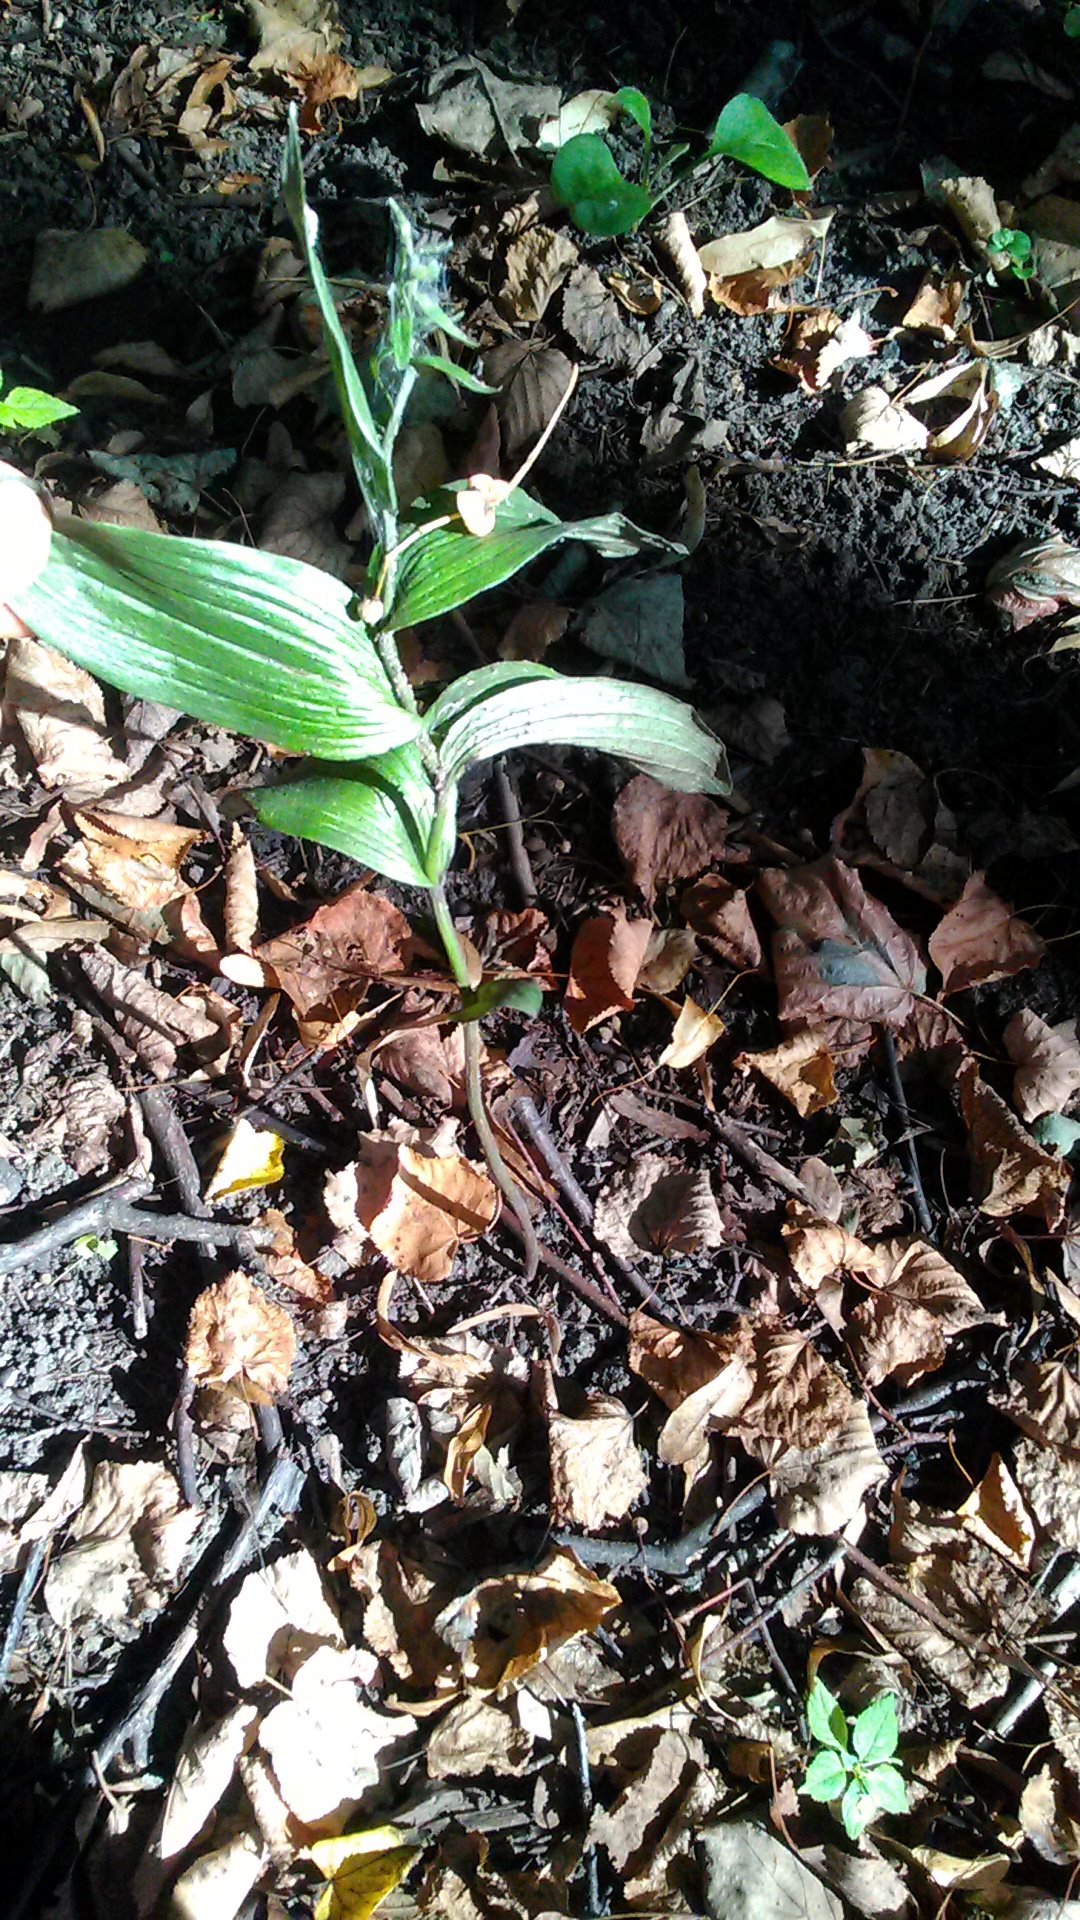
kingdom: Plantae
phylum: Tracheophyta
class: Liliopsida
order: Asparagales
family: Orchidaceae
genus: Epipactis
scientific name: Epipactis helleborine
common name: Broad-leaved helleborine
